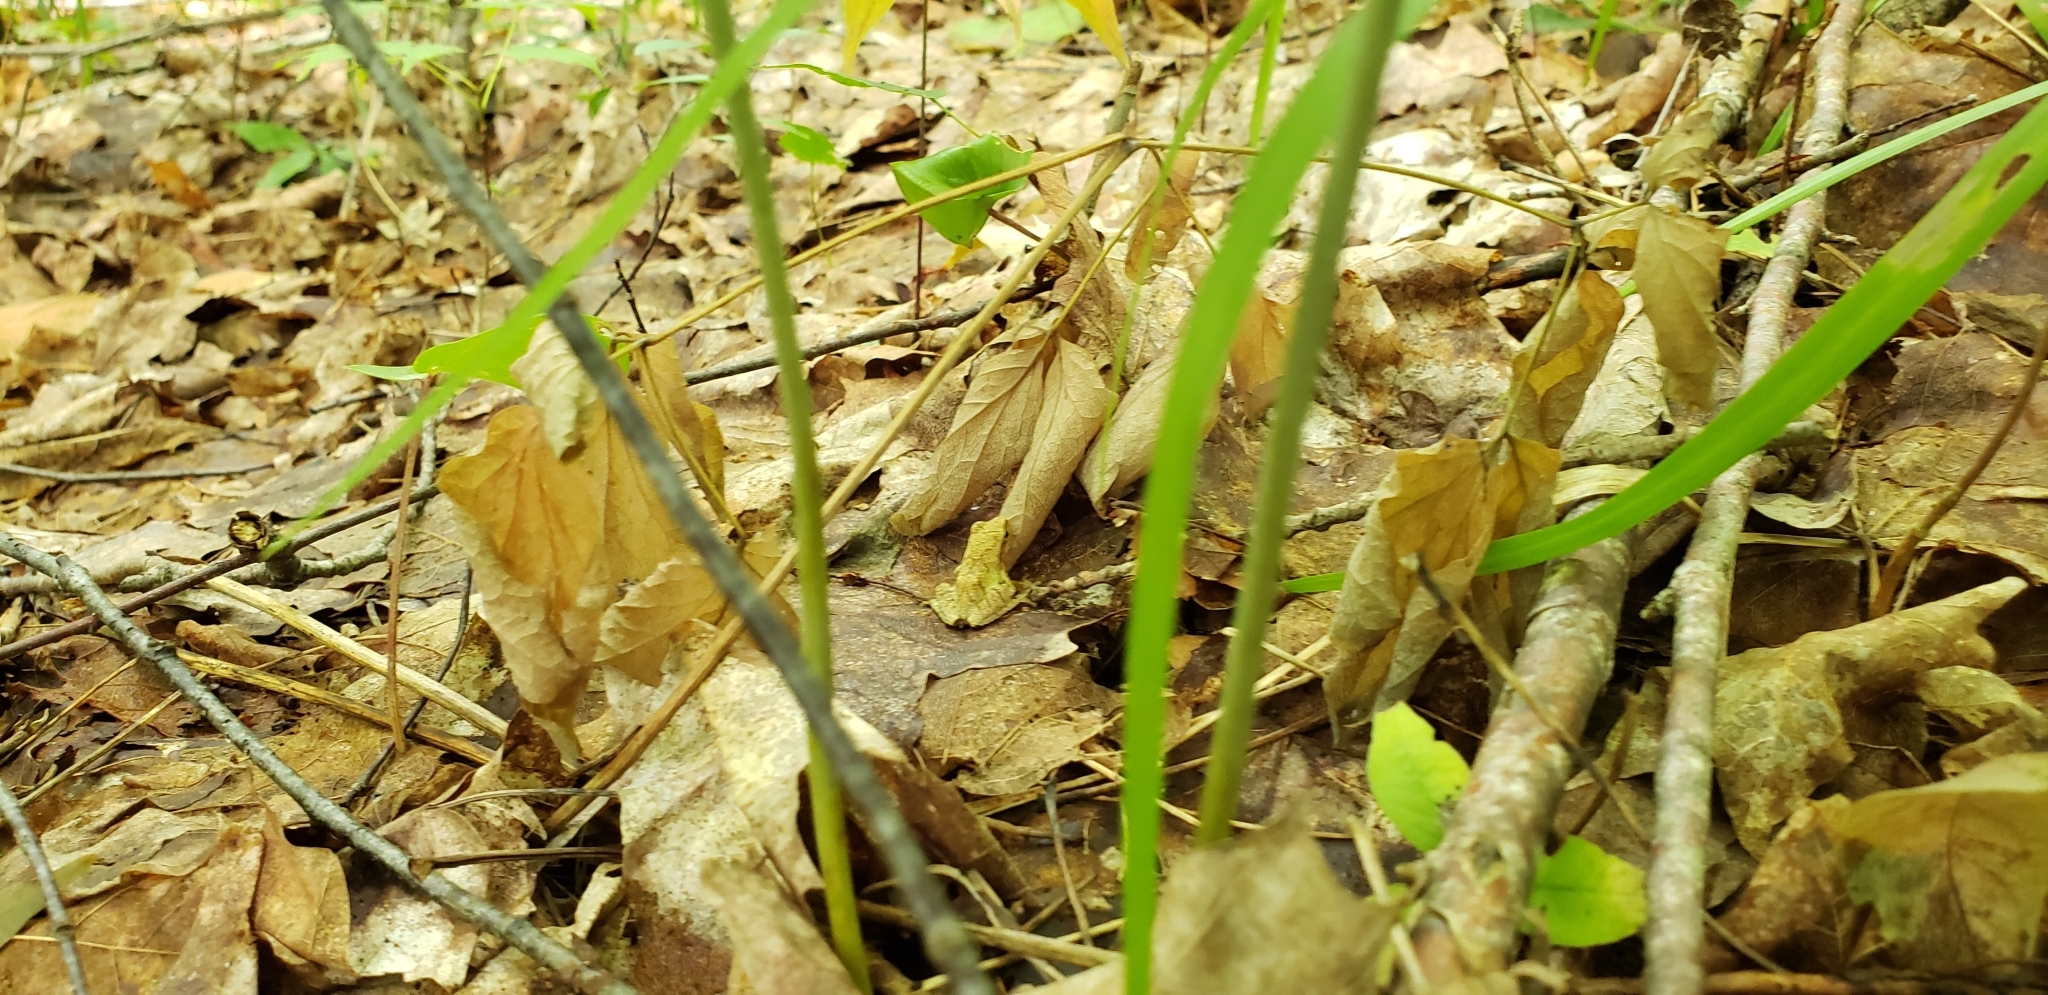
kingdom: Animalia
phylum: Chordata
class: Amphibia
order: Anura
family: Hylidae
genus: Pseudacris
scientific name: Pseudacris crucifer
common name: Spring peeper
